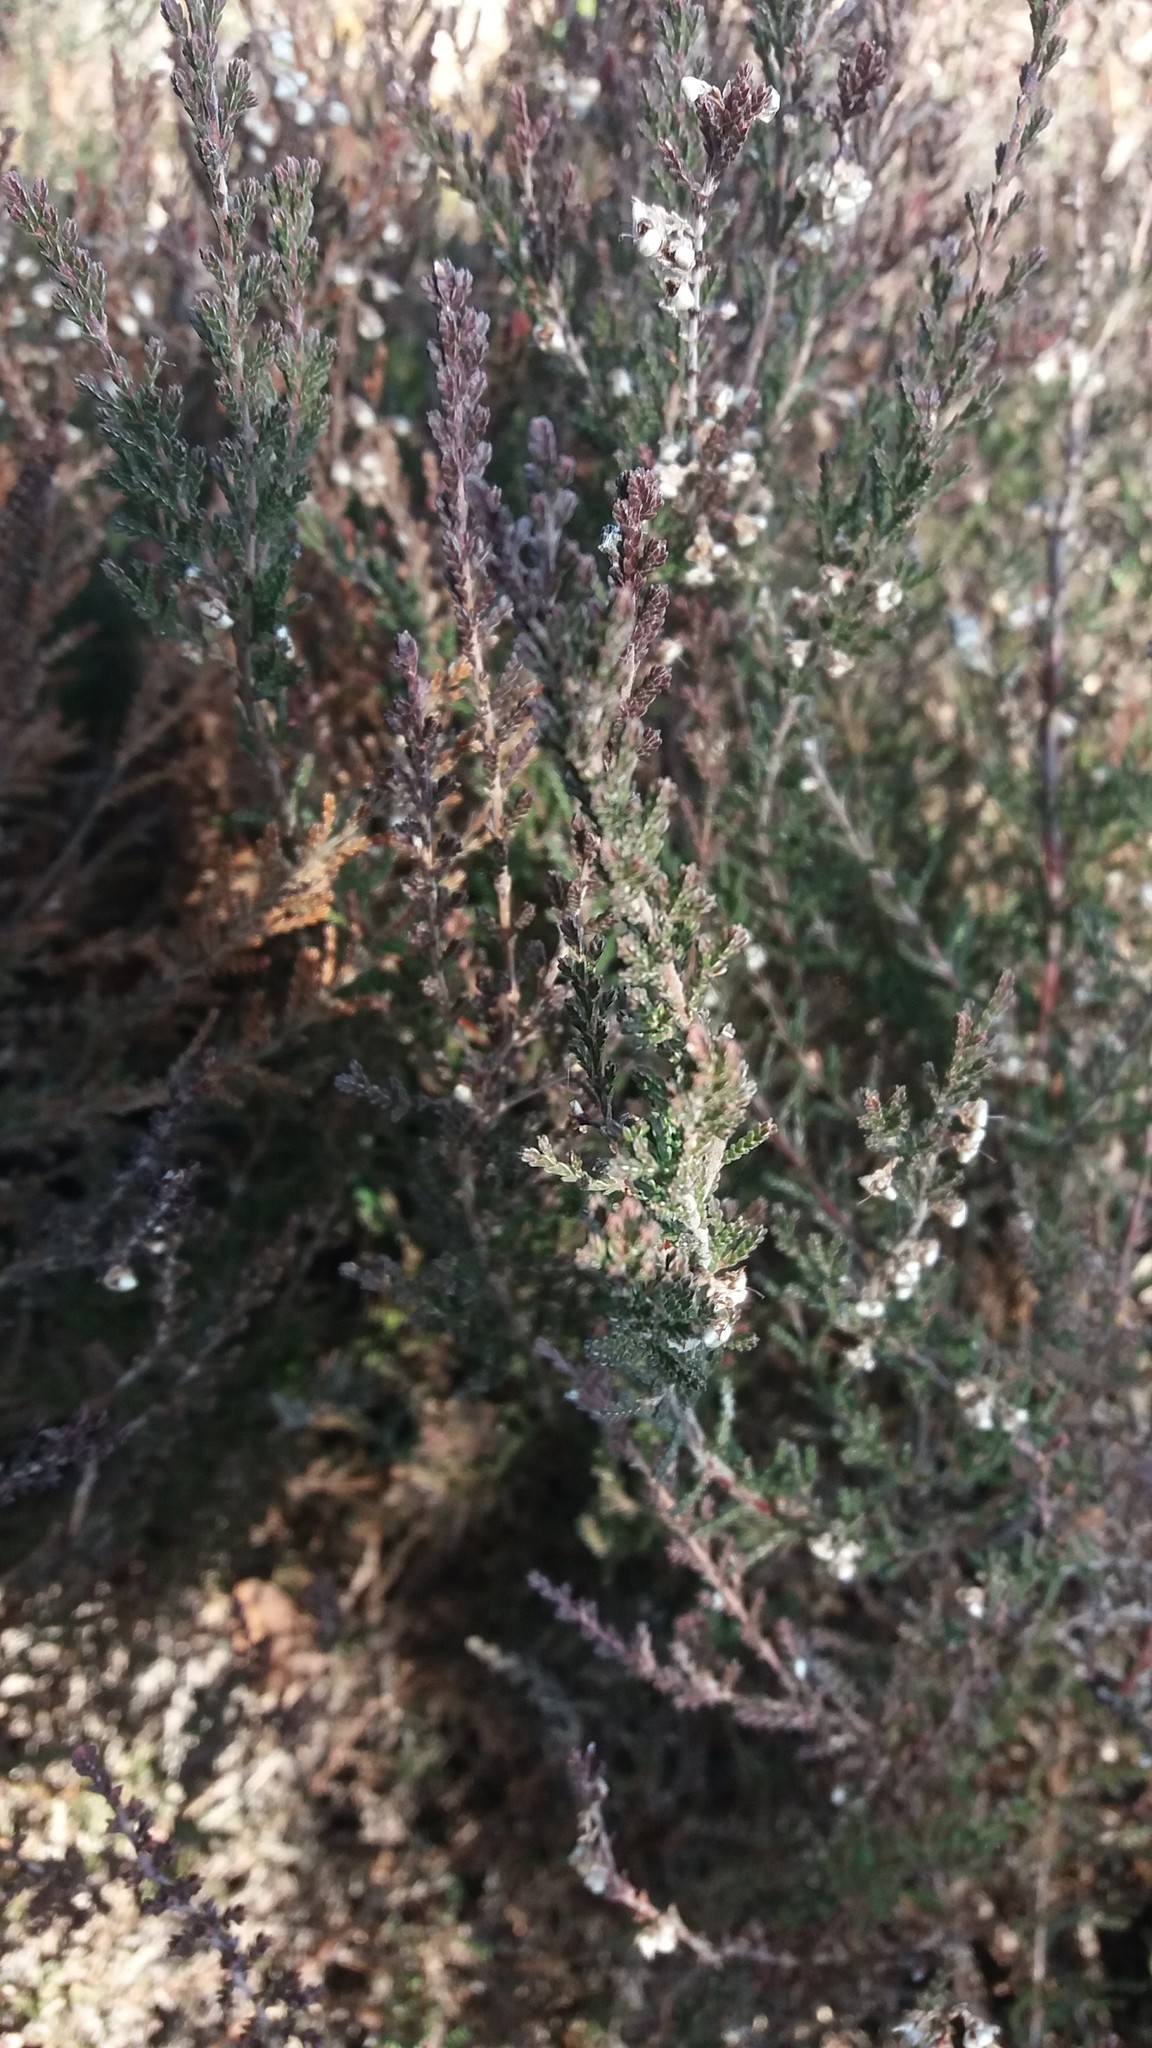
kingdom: Plantae
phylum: Tracheophyta
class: Magnoliopsida
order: Ericales
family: Ericaceae
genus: Calluna
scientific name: Calluna vulgaris
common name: Heather
